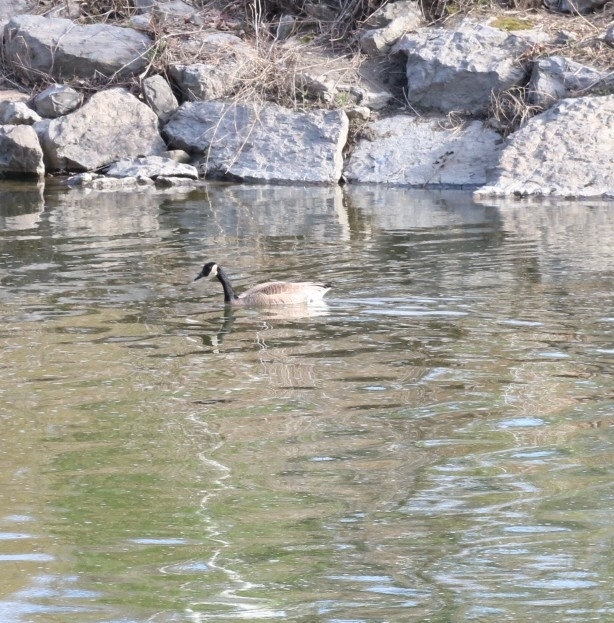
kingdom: Animalia
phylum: Chordata
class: Aves
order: Anseriformes
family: Anatidae
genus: Branta
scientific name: Branta canadensis
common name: Canada goose
